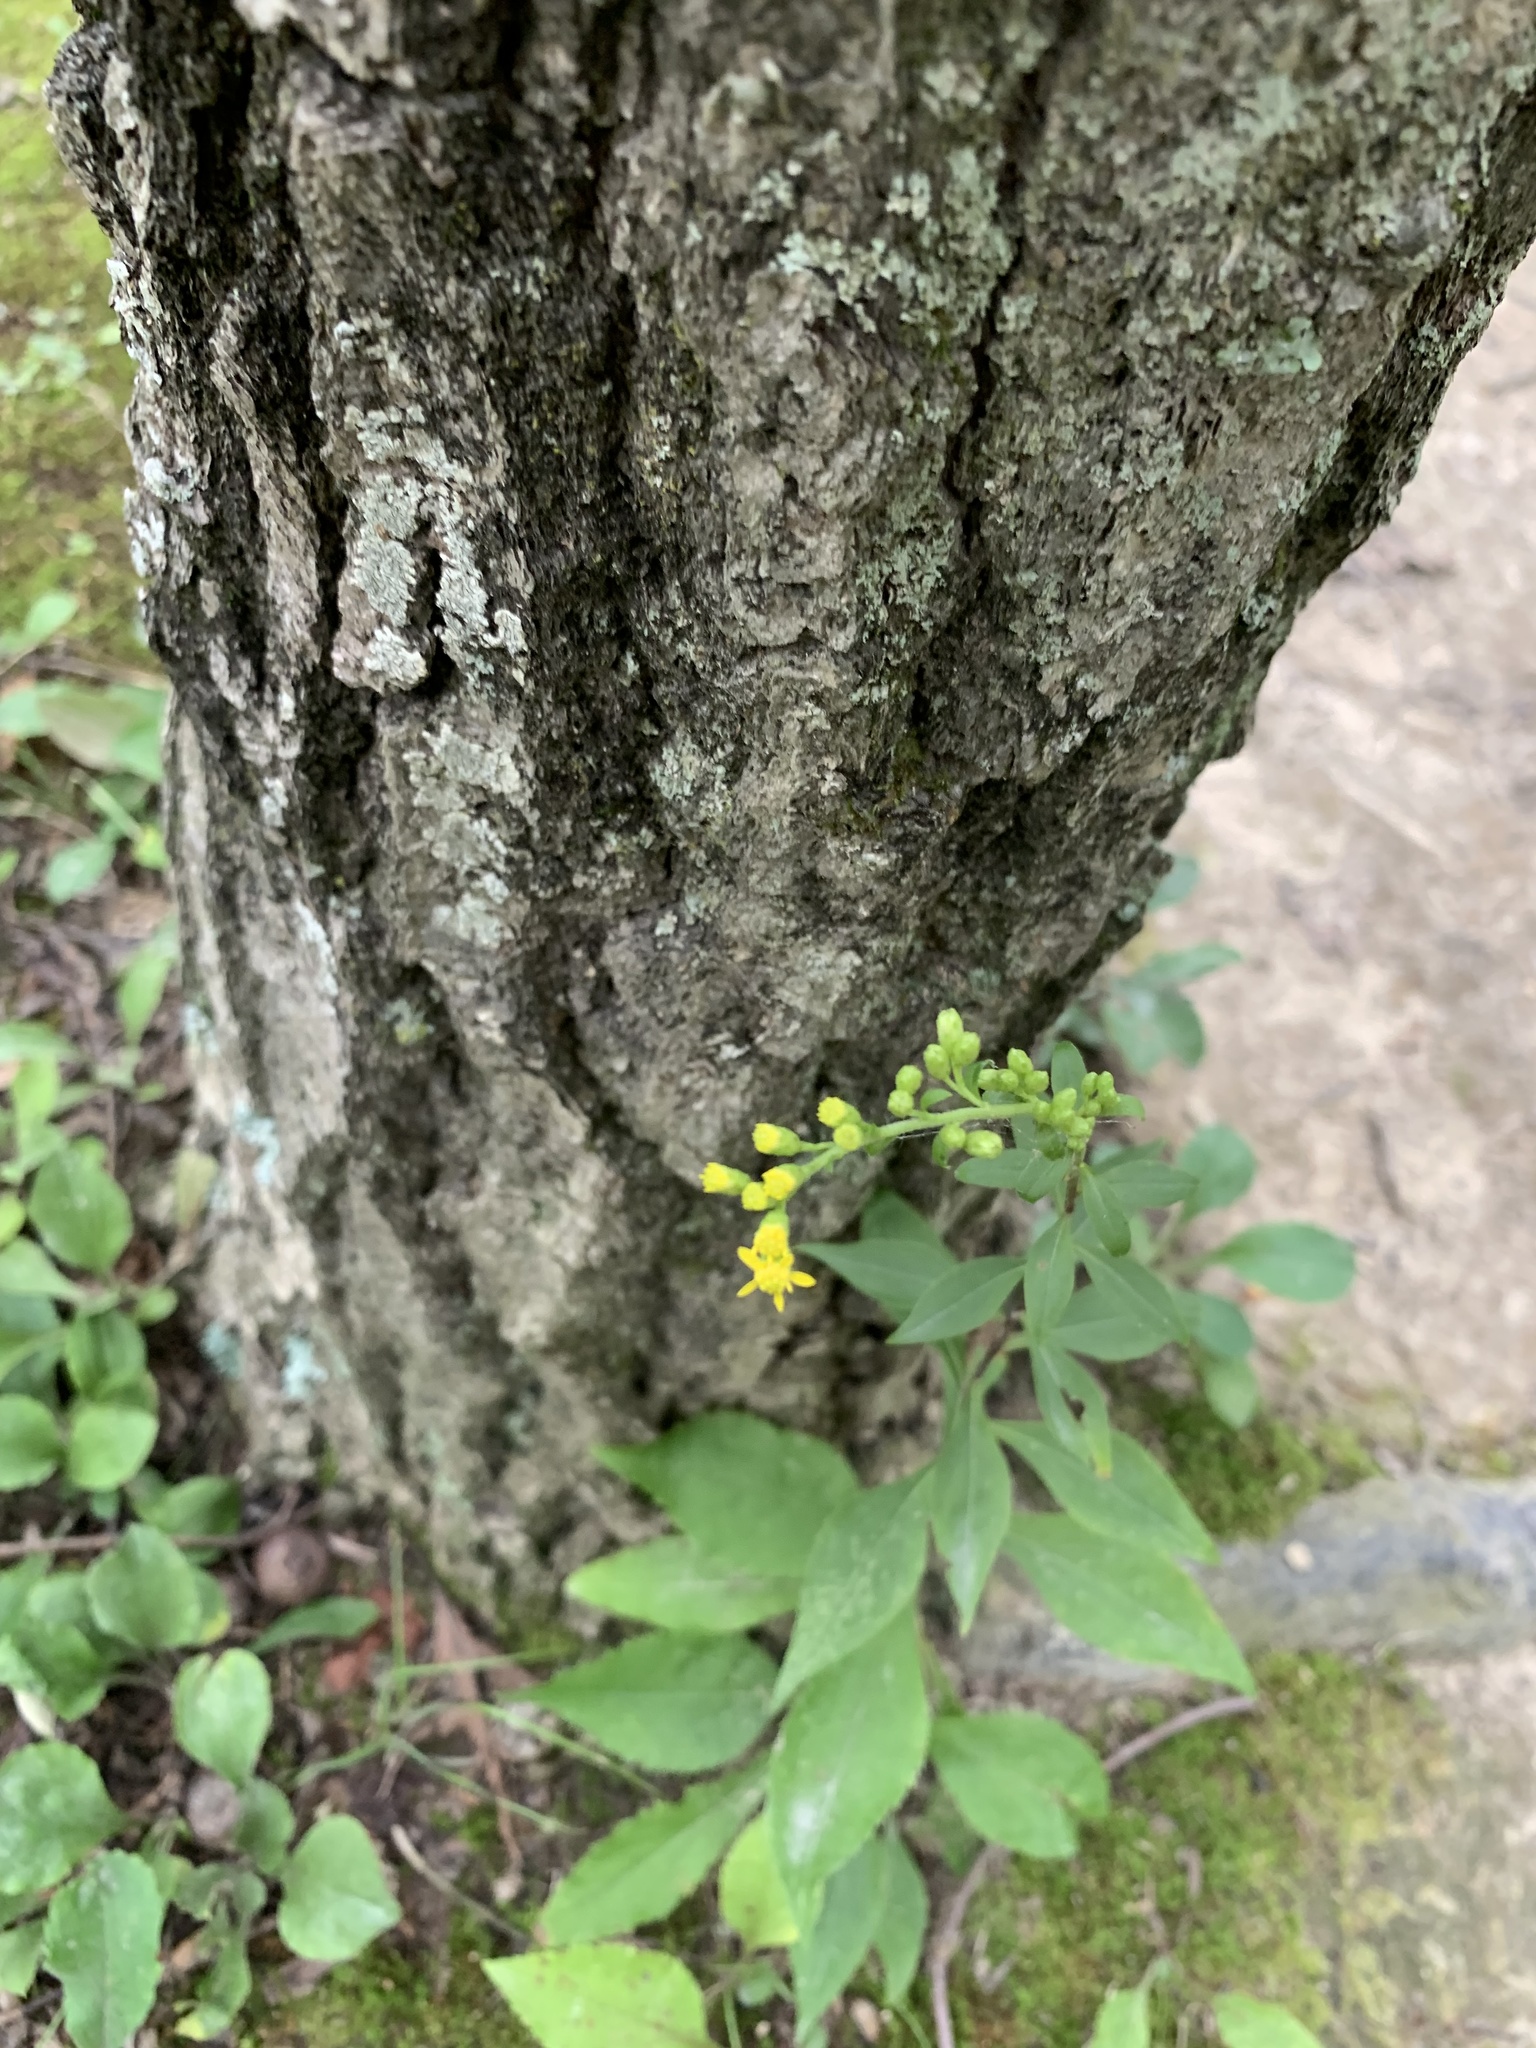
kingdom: Plantae
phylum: Tracheophyta
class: Magnoliopsida
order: Asterales
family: Asteraceae
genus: Solidago
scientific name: Solidago arguta
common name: Atlantic goldenrod
